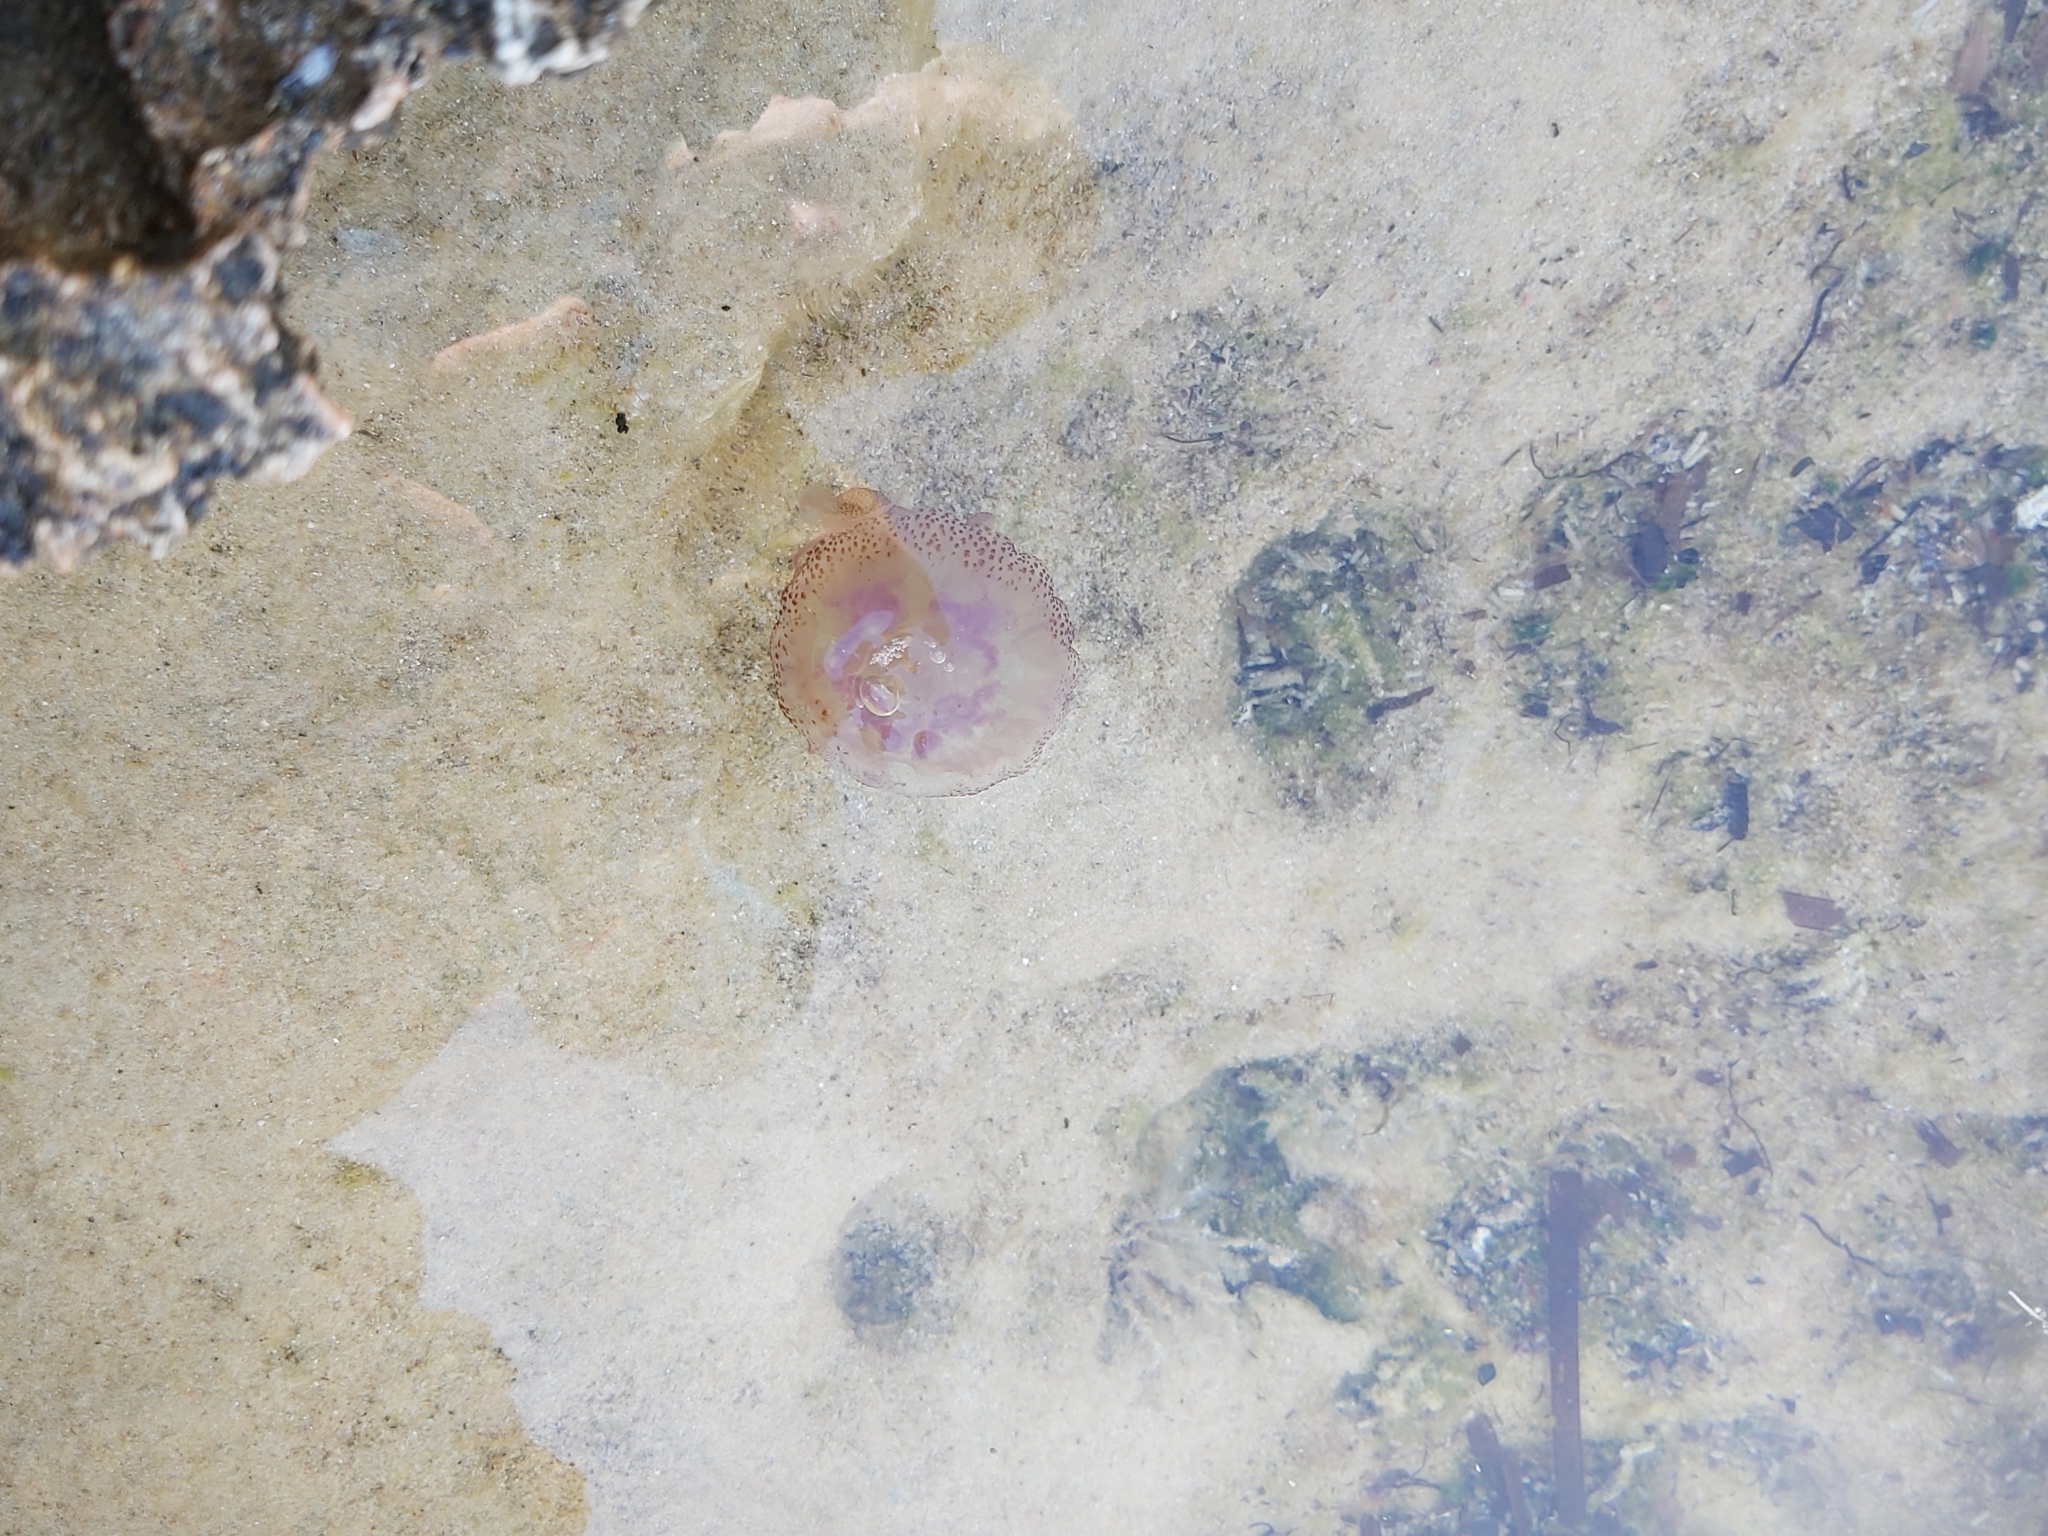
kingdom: Animalia
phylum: Cnidaria
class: Scyphozoa
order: Semaeostomeae
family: Pelagiidae
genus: Pelagia
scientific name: Pelagia noctiluca
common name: Mauve stinger
